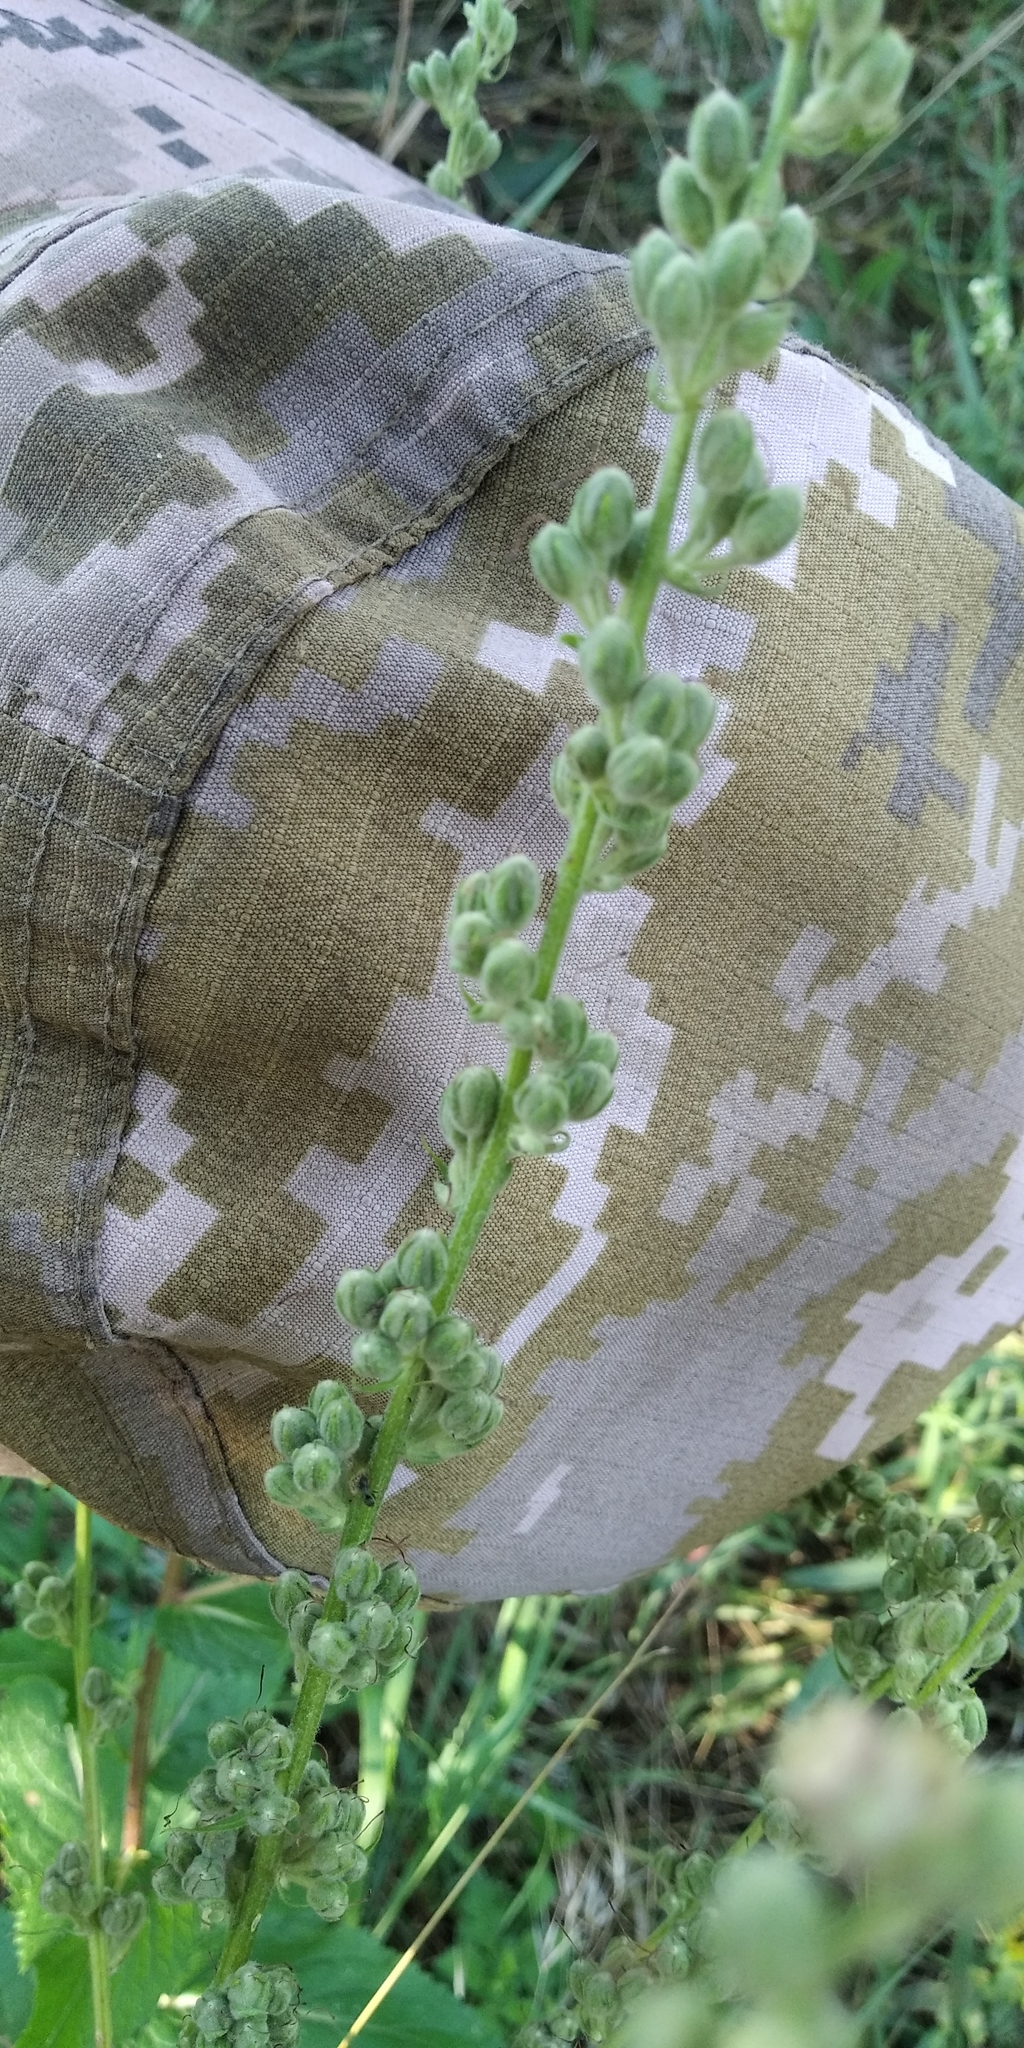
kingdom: Plantae
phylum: Tracheophyta
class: Magnoliopsida
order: Lamiales
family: Scrophulariaceae
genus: Verbascum
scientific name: Verbascum chaixii
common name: Nettle-leaved mullein
